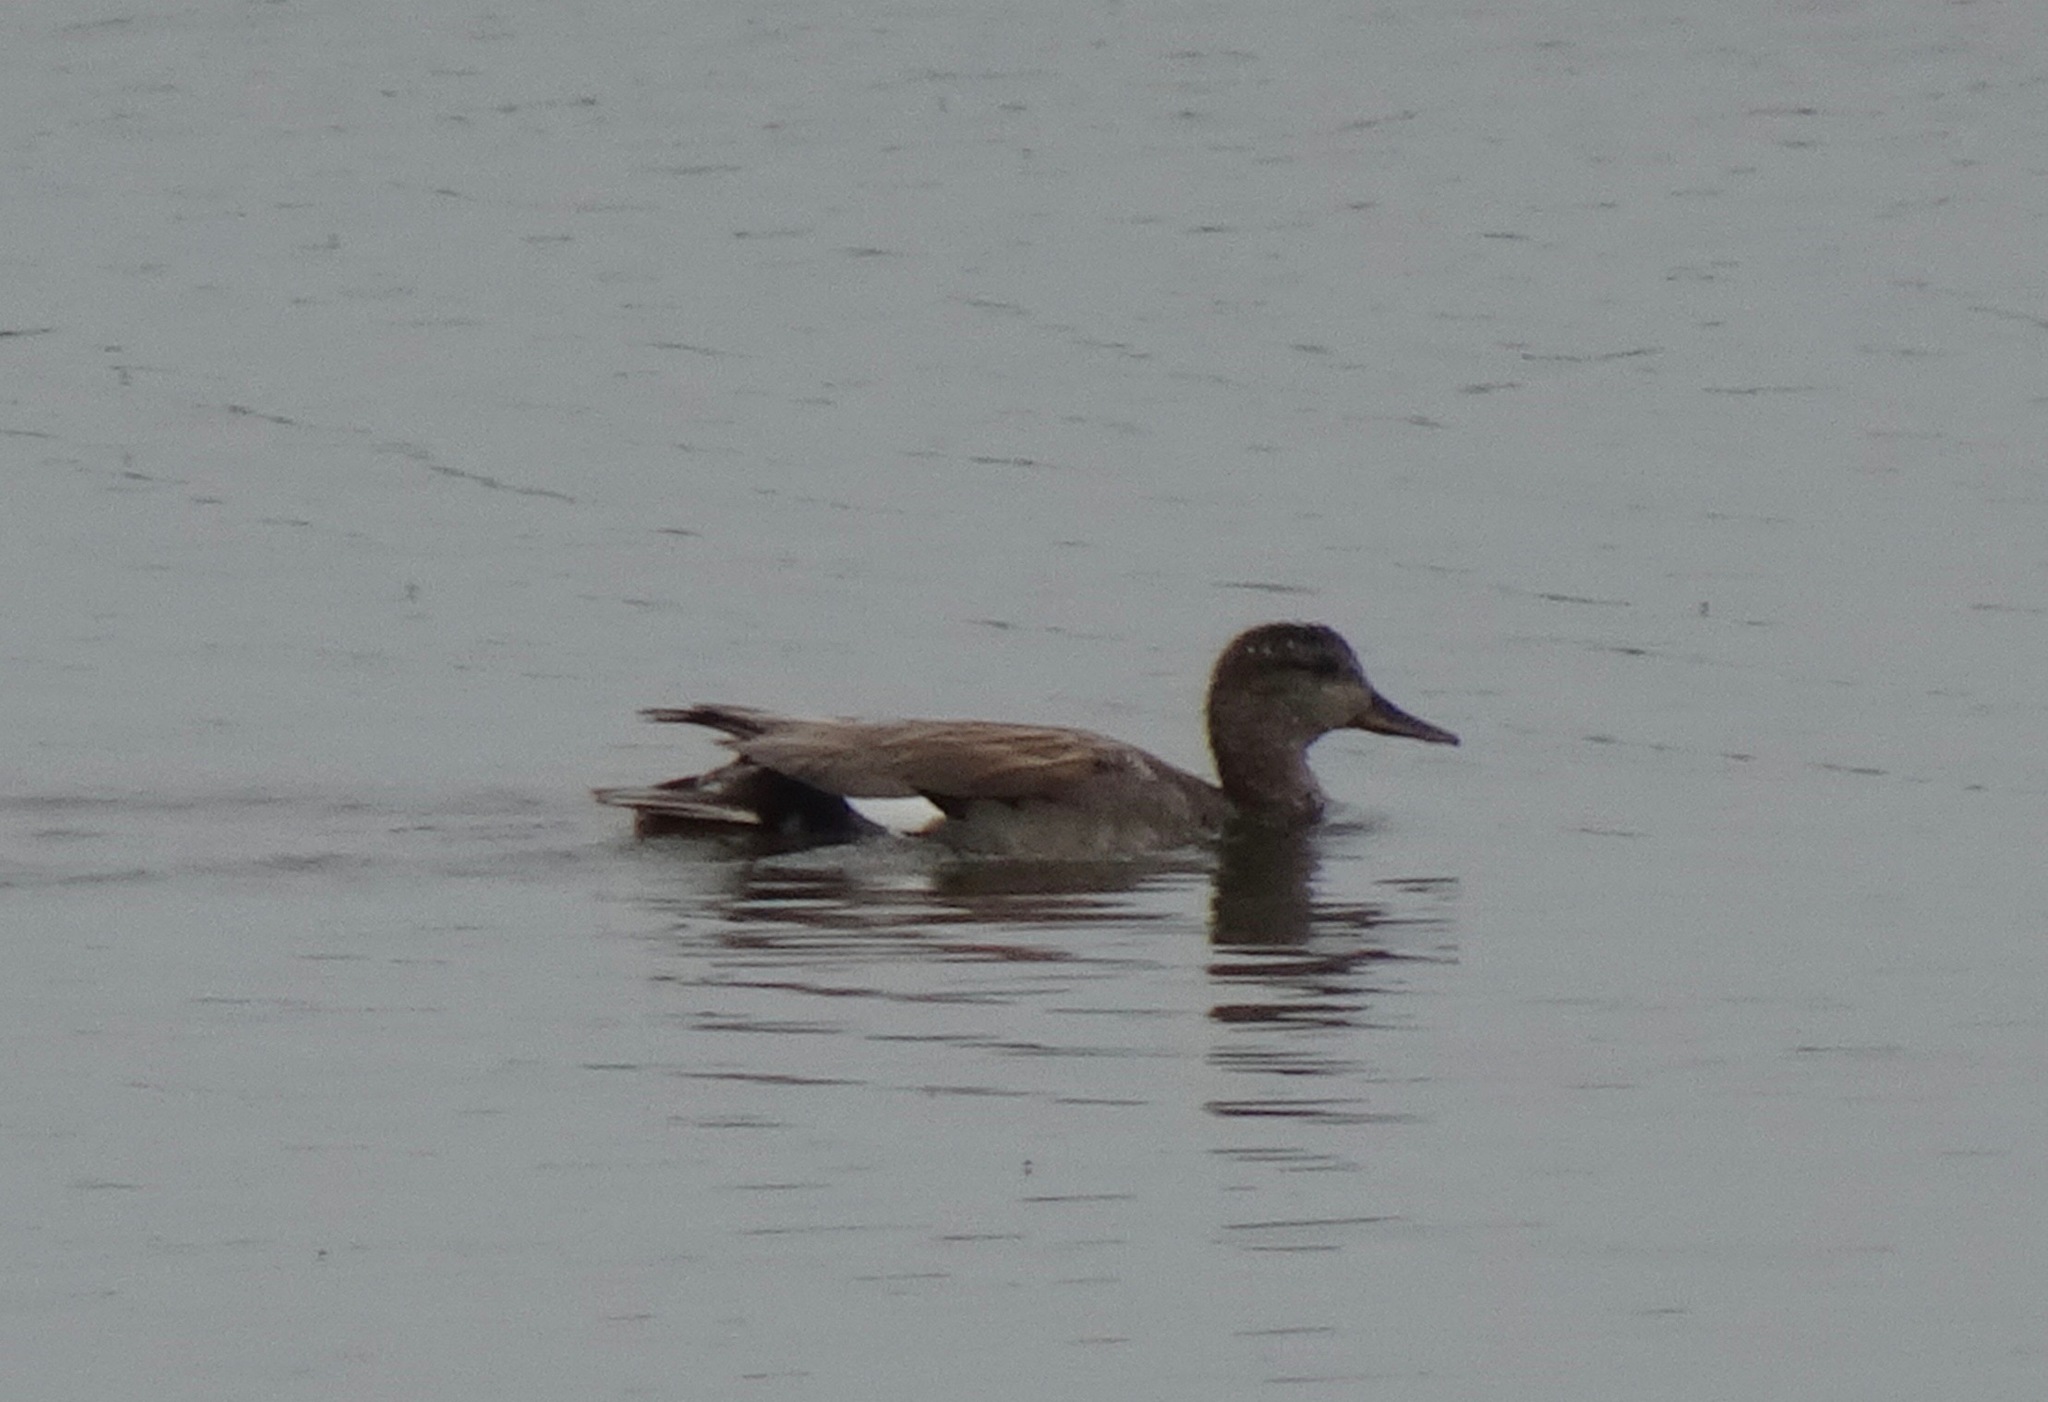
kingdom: Animalia
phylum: Chordata
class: Aves
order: Anseriformes
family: Anatidae
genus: Mareca
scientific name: Mareca strepera
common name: Gadwall
